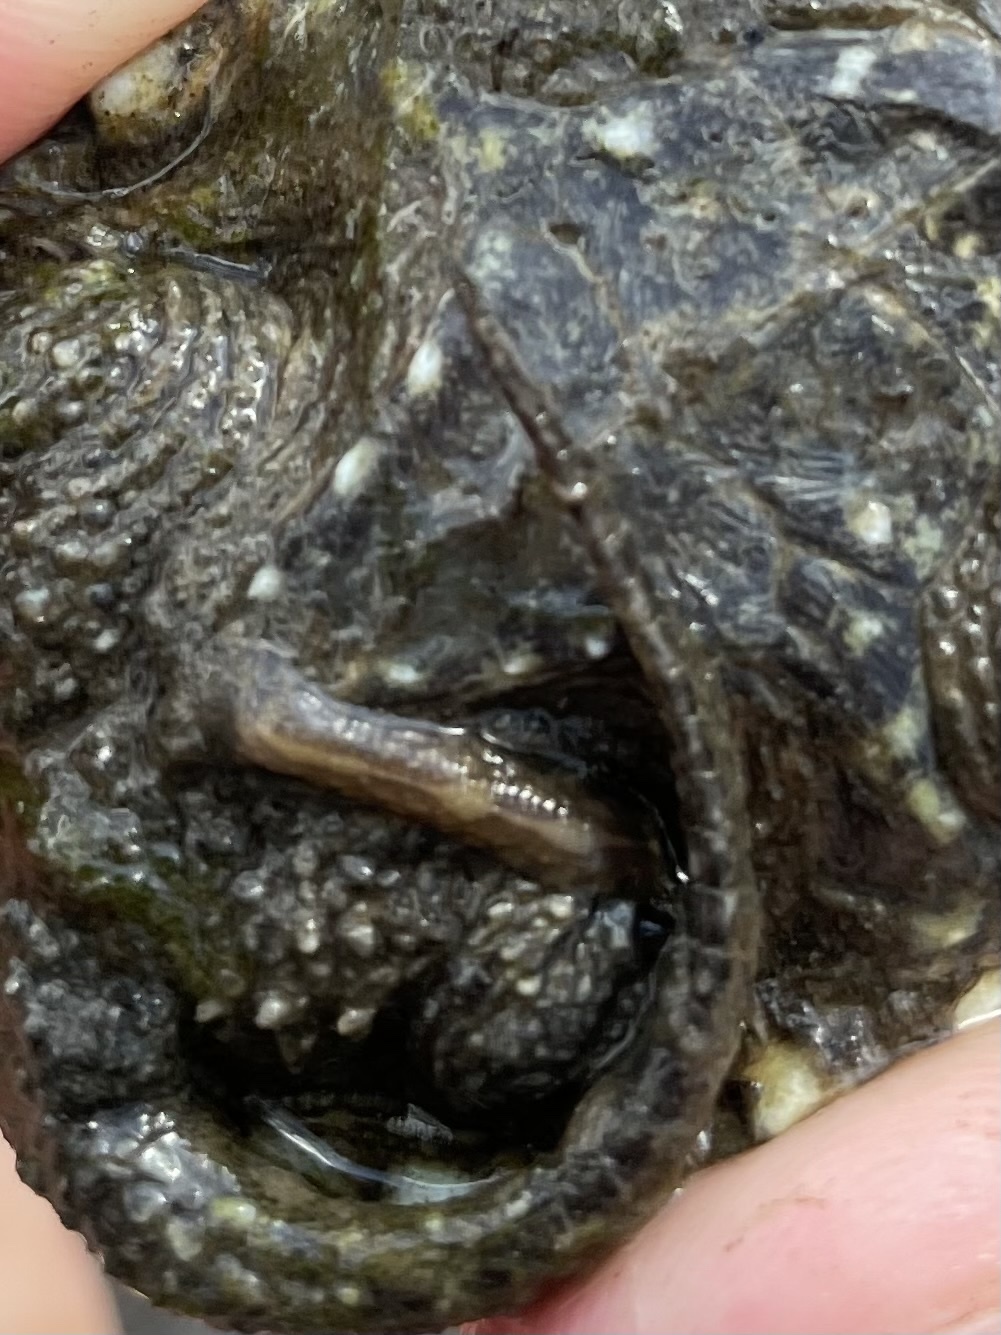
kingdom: Animalia
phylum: Annelida
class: Clitellata
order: Rhynchobdellida
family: Glossiphoniidae
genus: Placobdella
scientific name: Placobdella parasitica
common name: Smooth turtle leech
